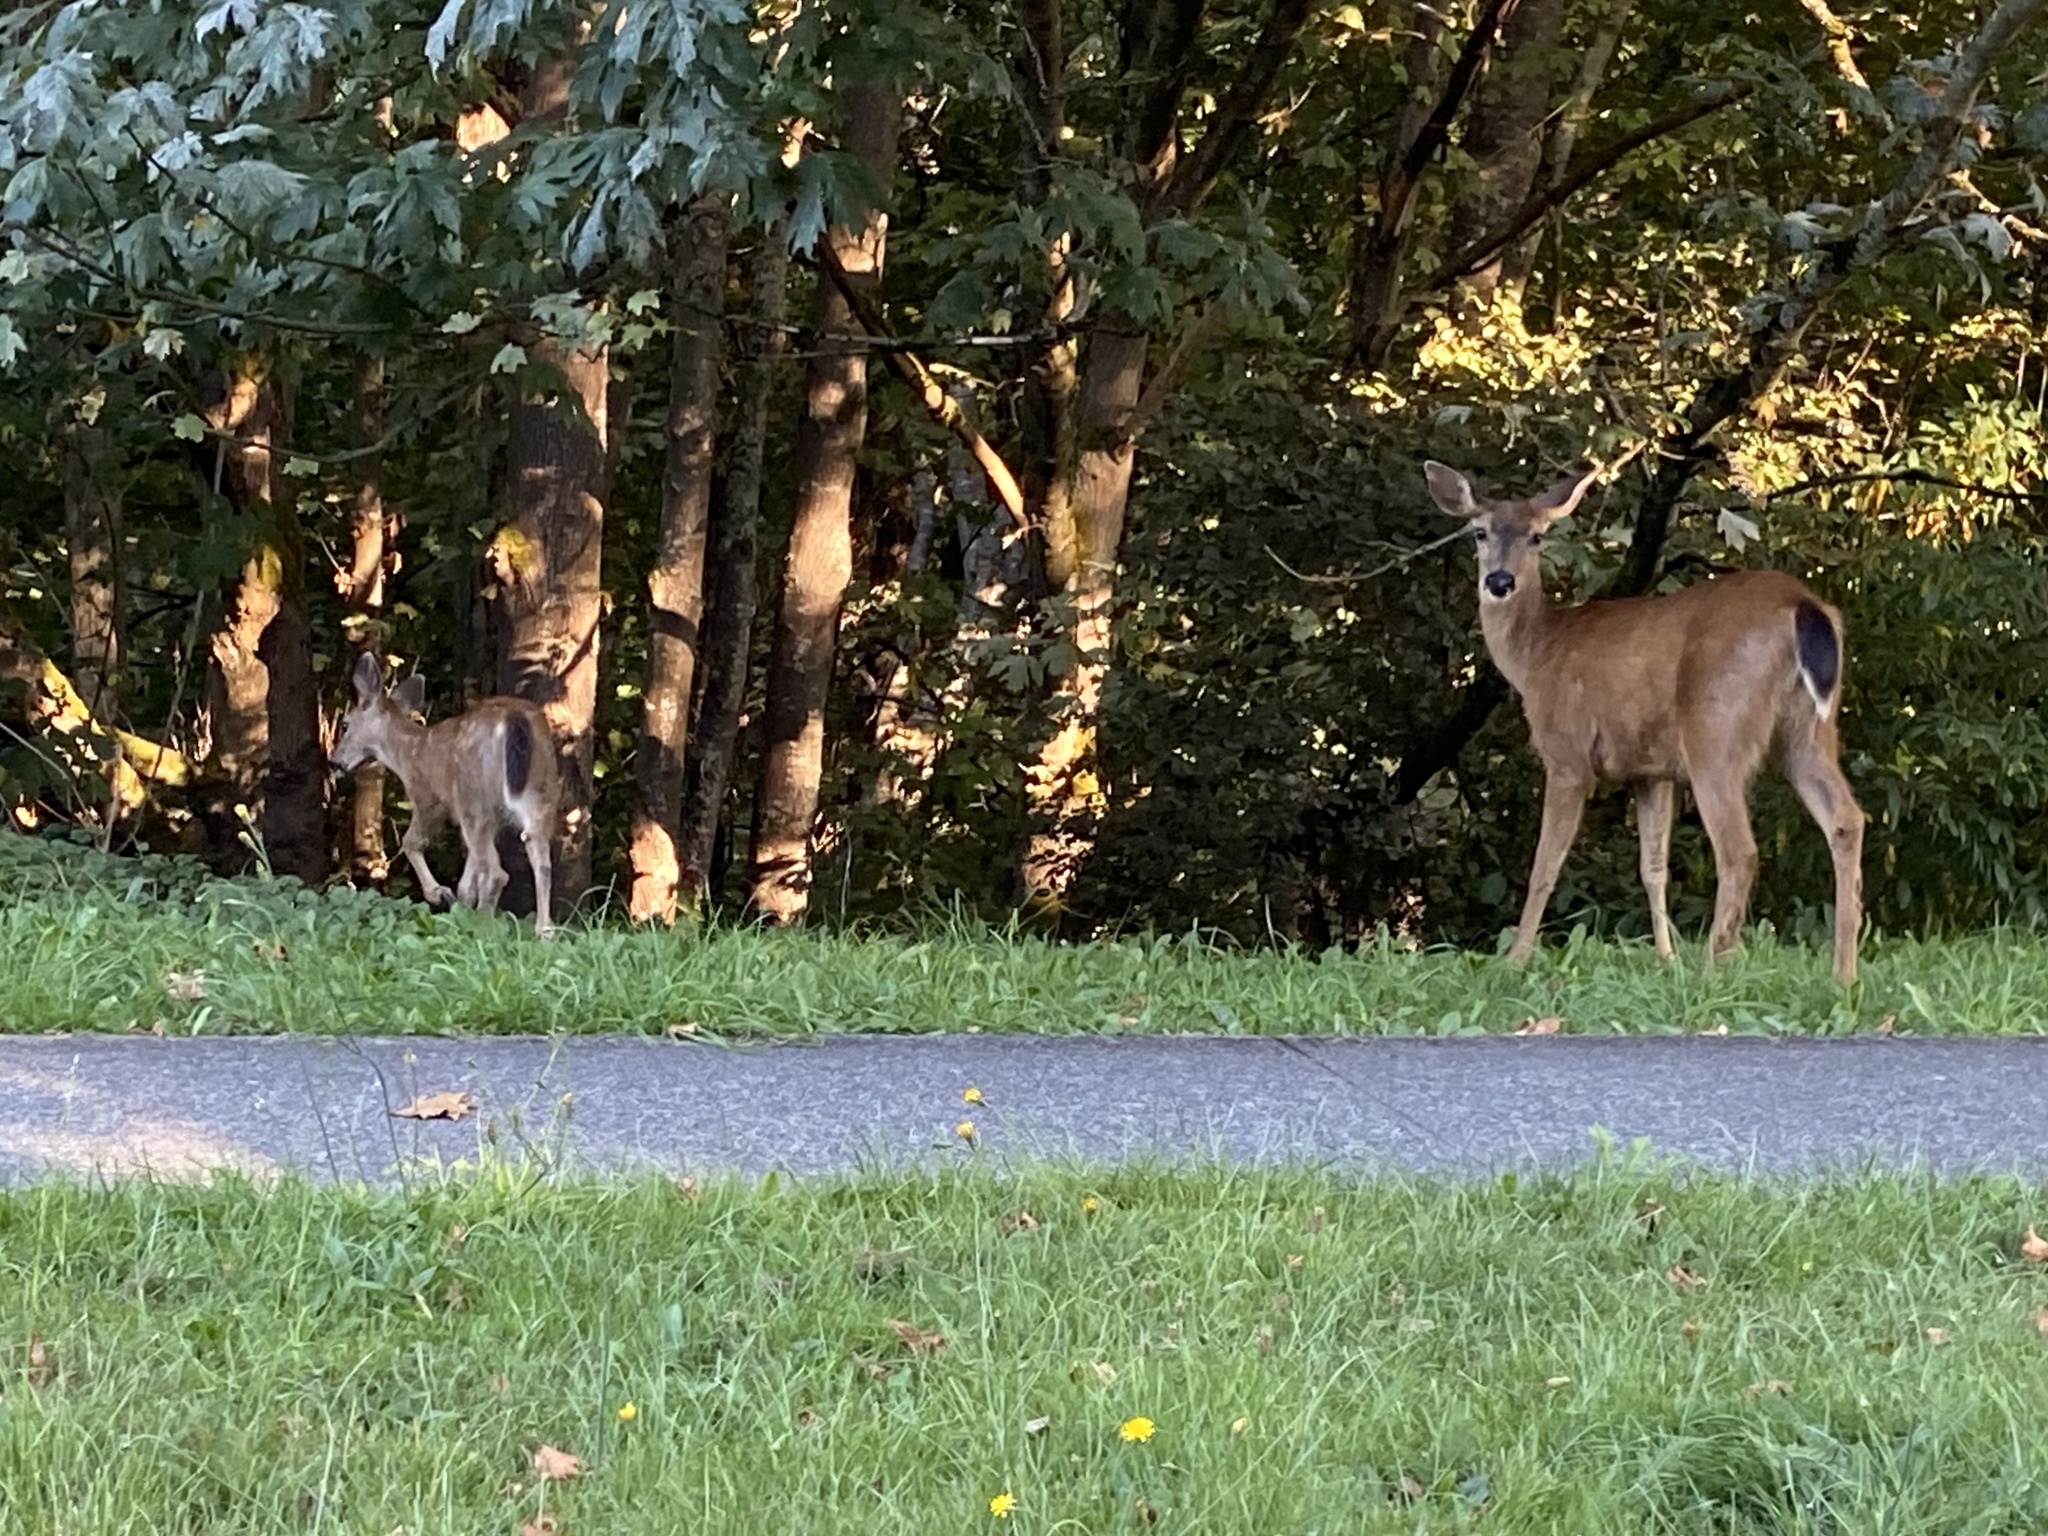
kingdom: Animalia
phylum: Chordata
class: Mammalia
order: Artiodactyla
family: Cervidae
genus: Odocoileus
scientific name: Odocoileus hemionus
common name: Mule deer
